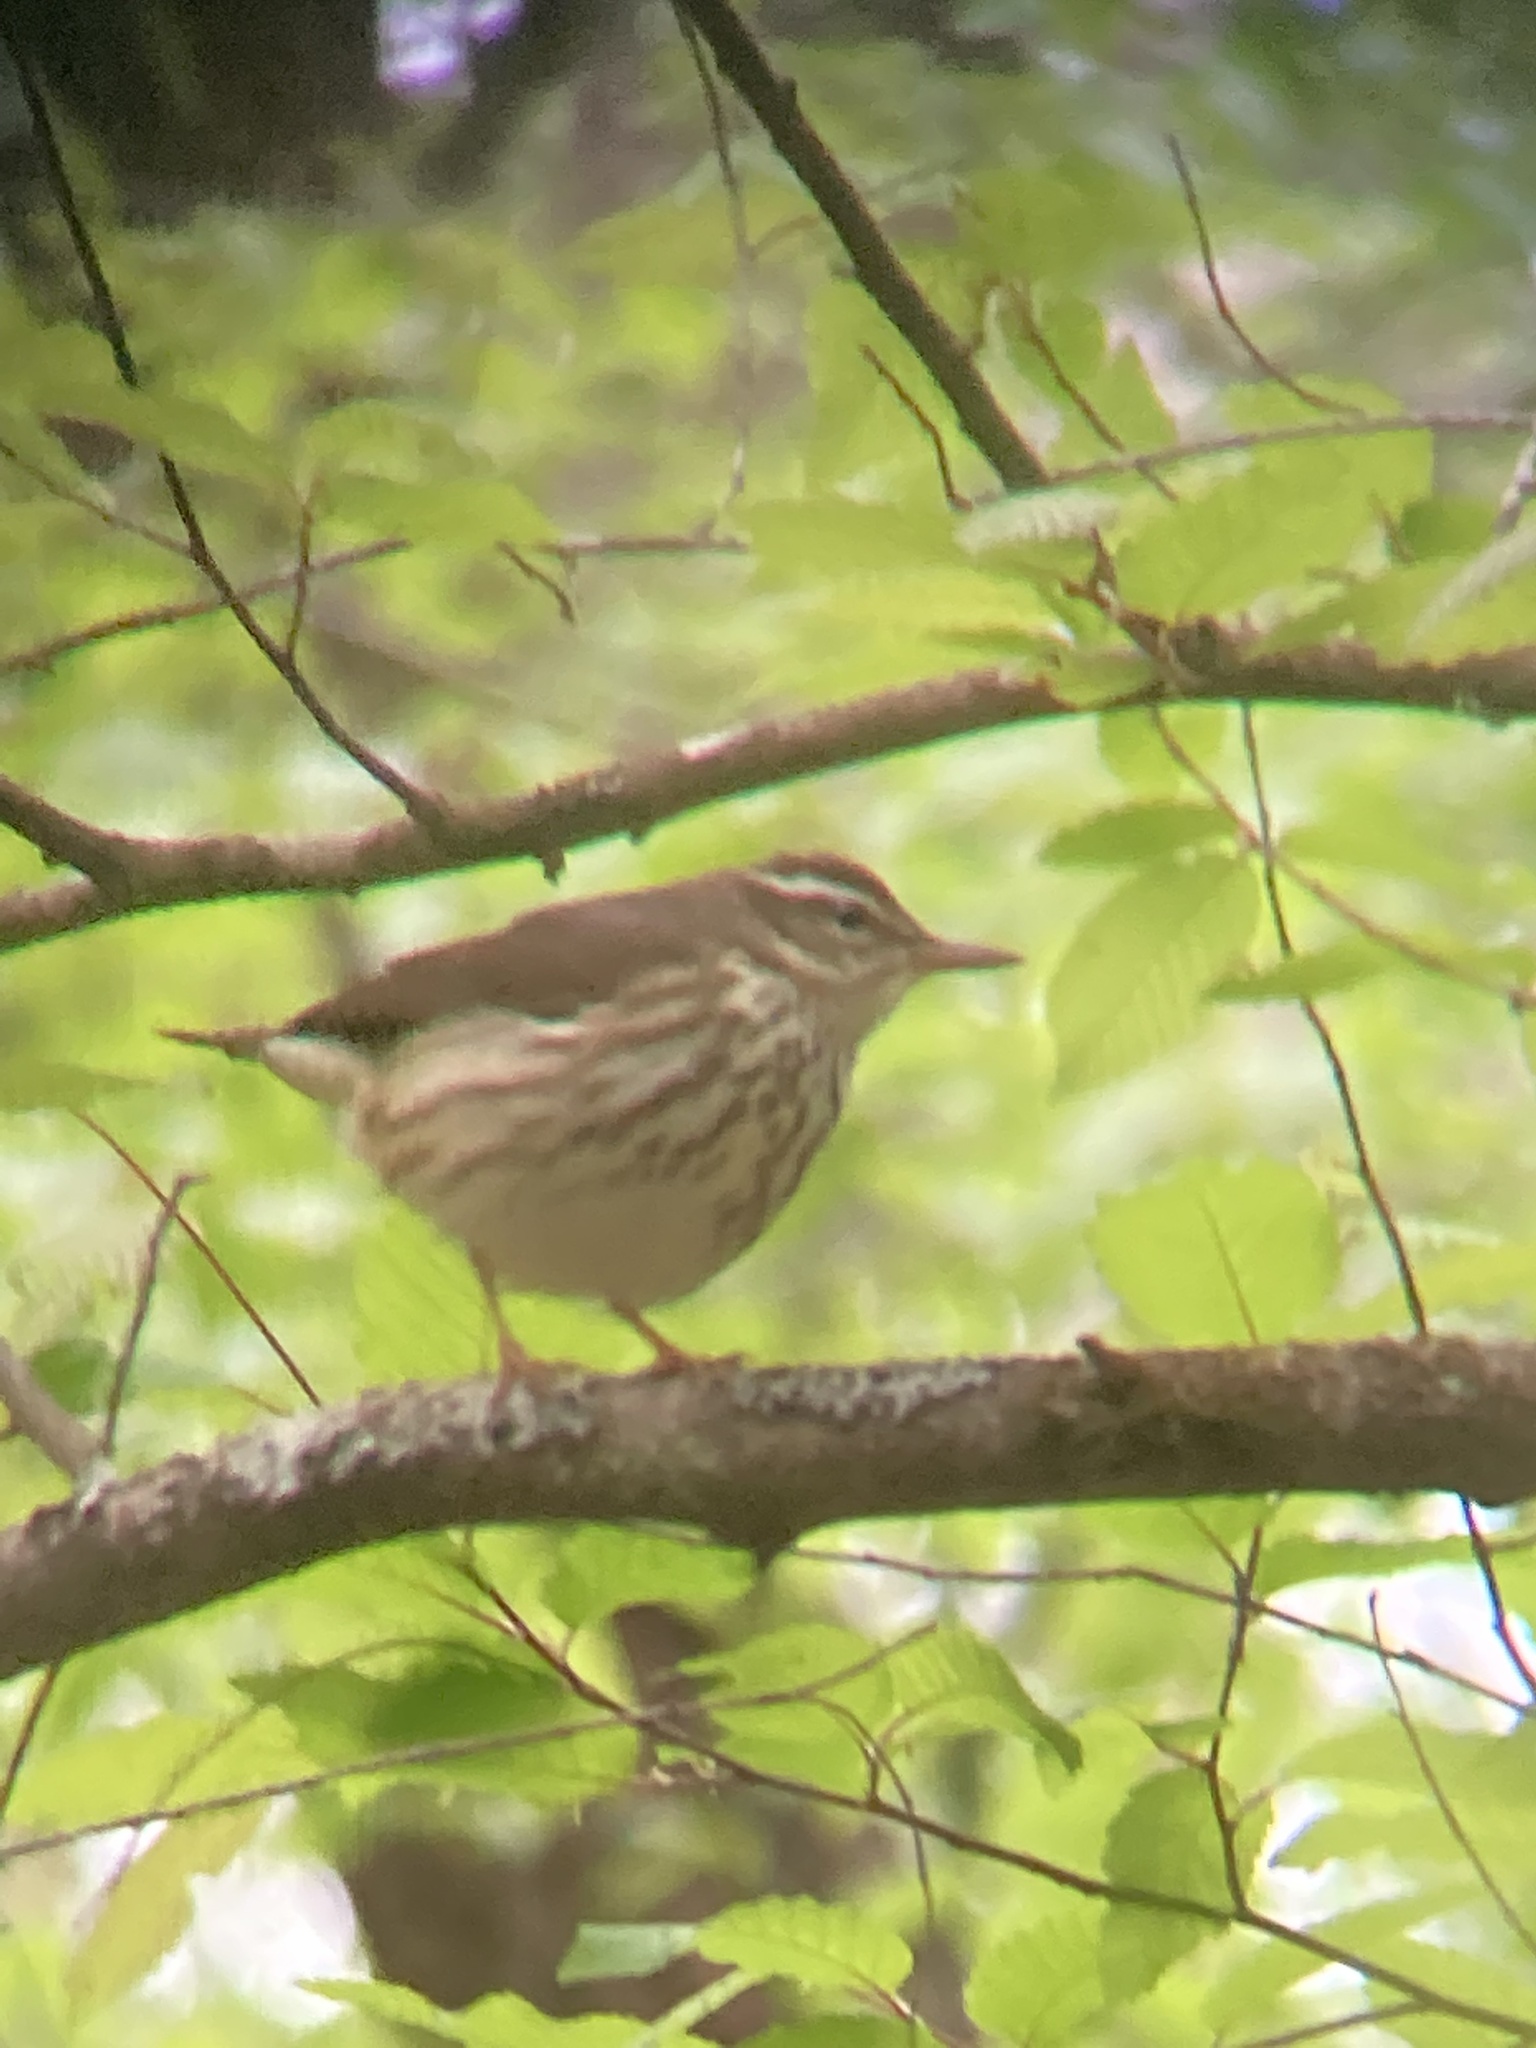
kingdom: Animalia
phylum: Chordata
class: Aves
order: Passeriformes
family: Parulidae
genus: Parkesia
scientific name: Parkesia motacilla
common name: Louisiana waterthrush
